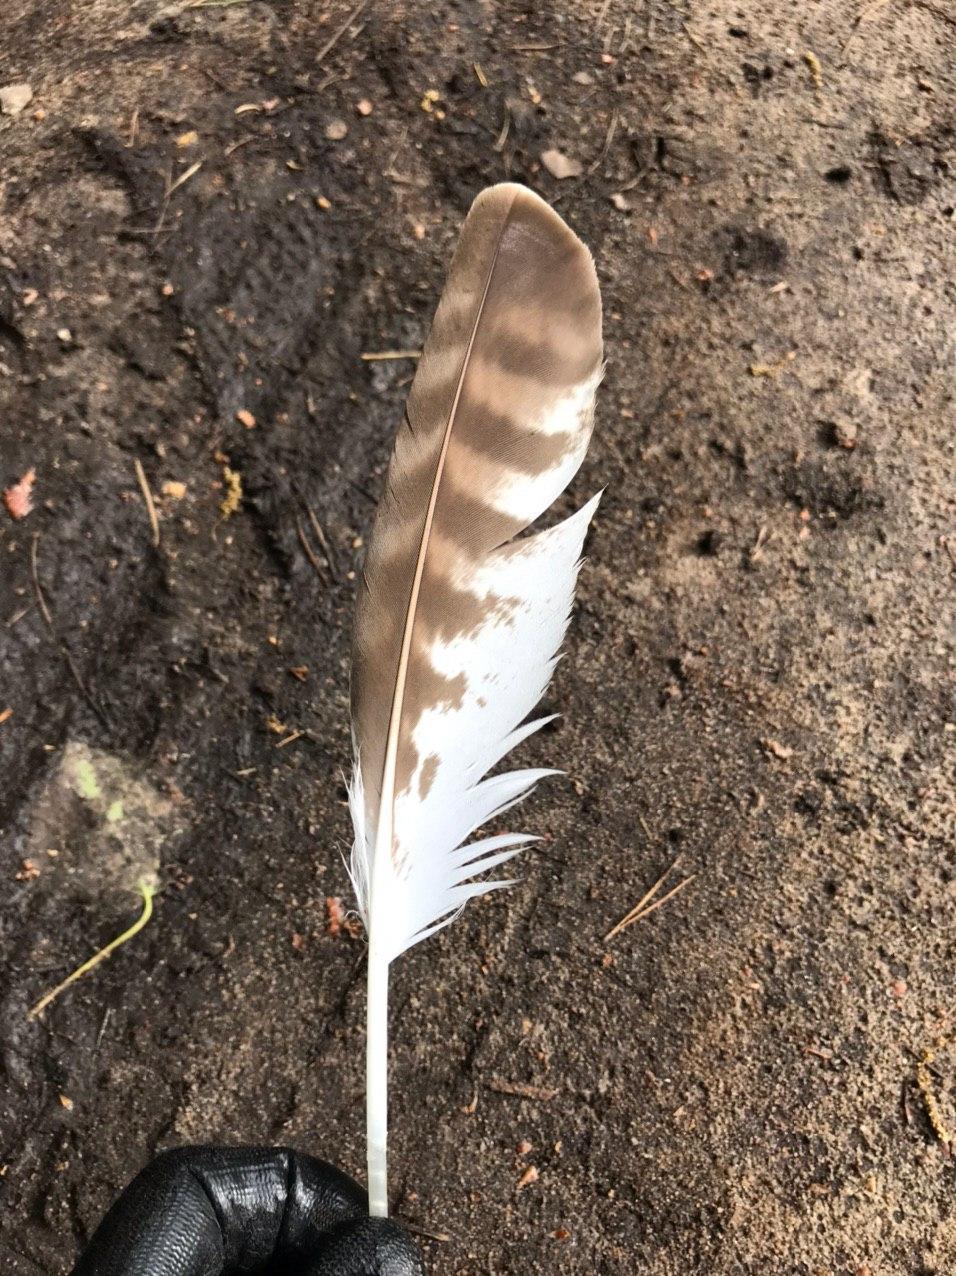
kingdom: Animalia
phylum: Chordata
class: Aves
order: Accipitriformes
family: Accipitridae
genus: Buteo
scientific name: Buteo buteo
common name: Common buzzard
